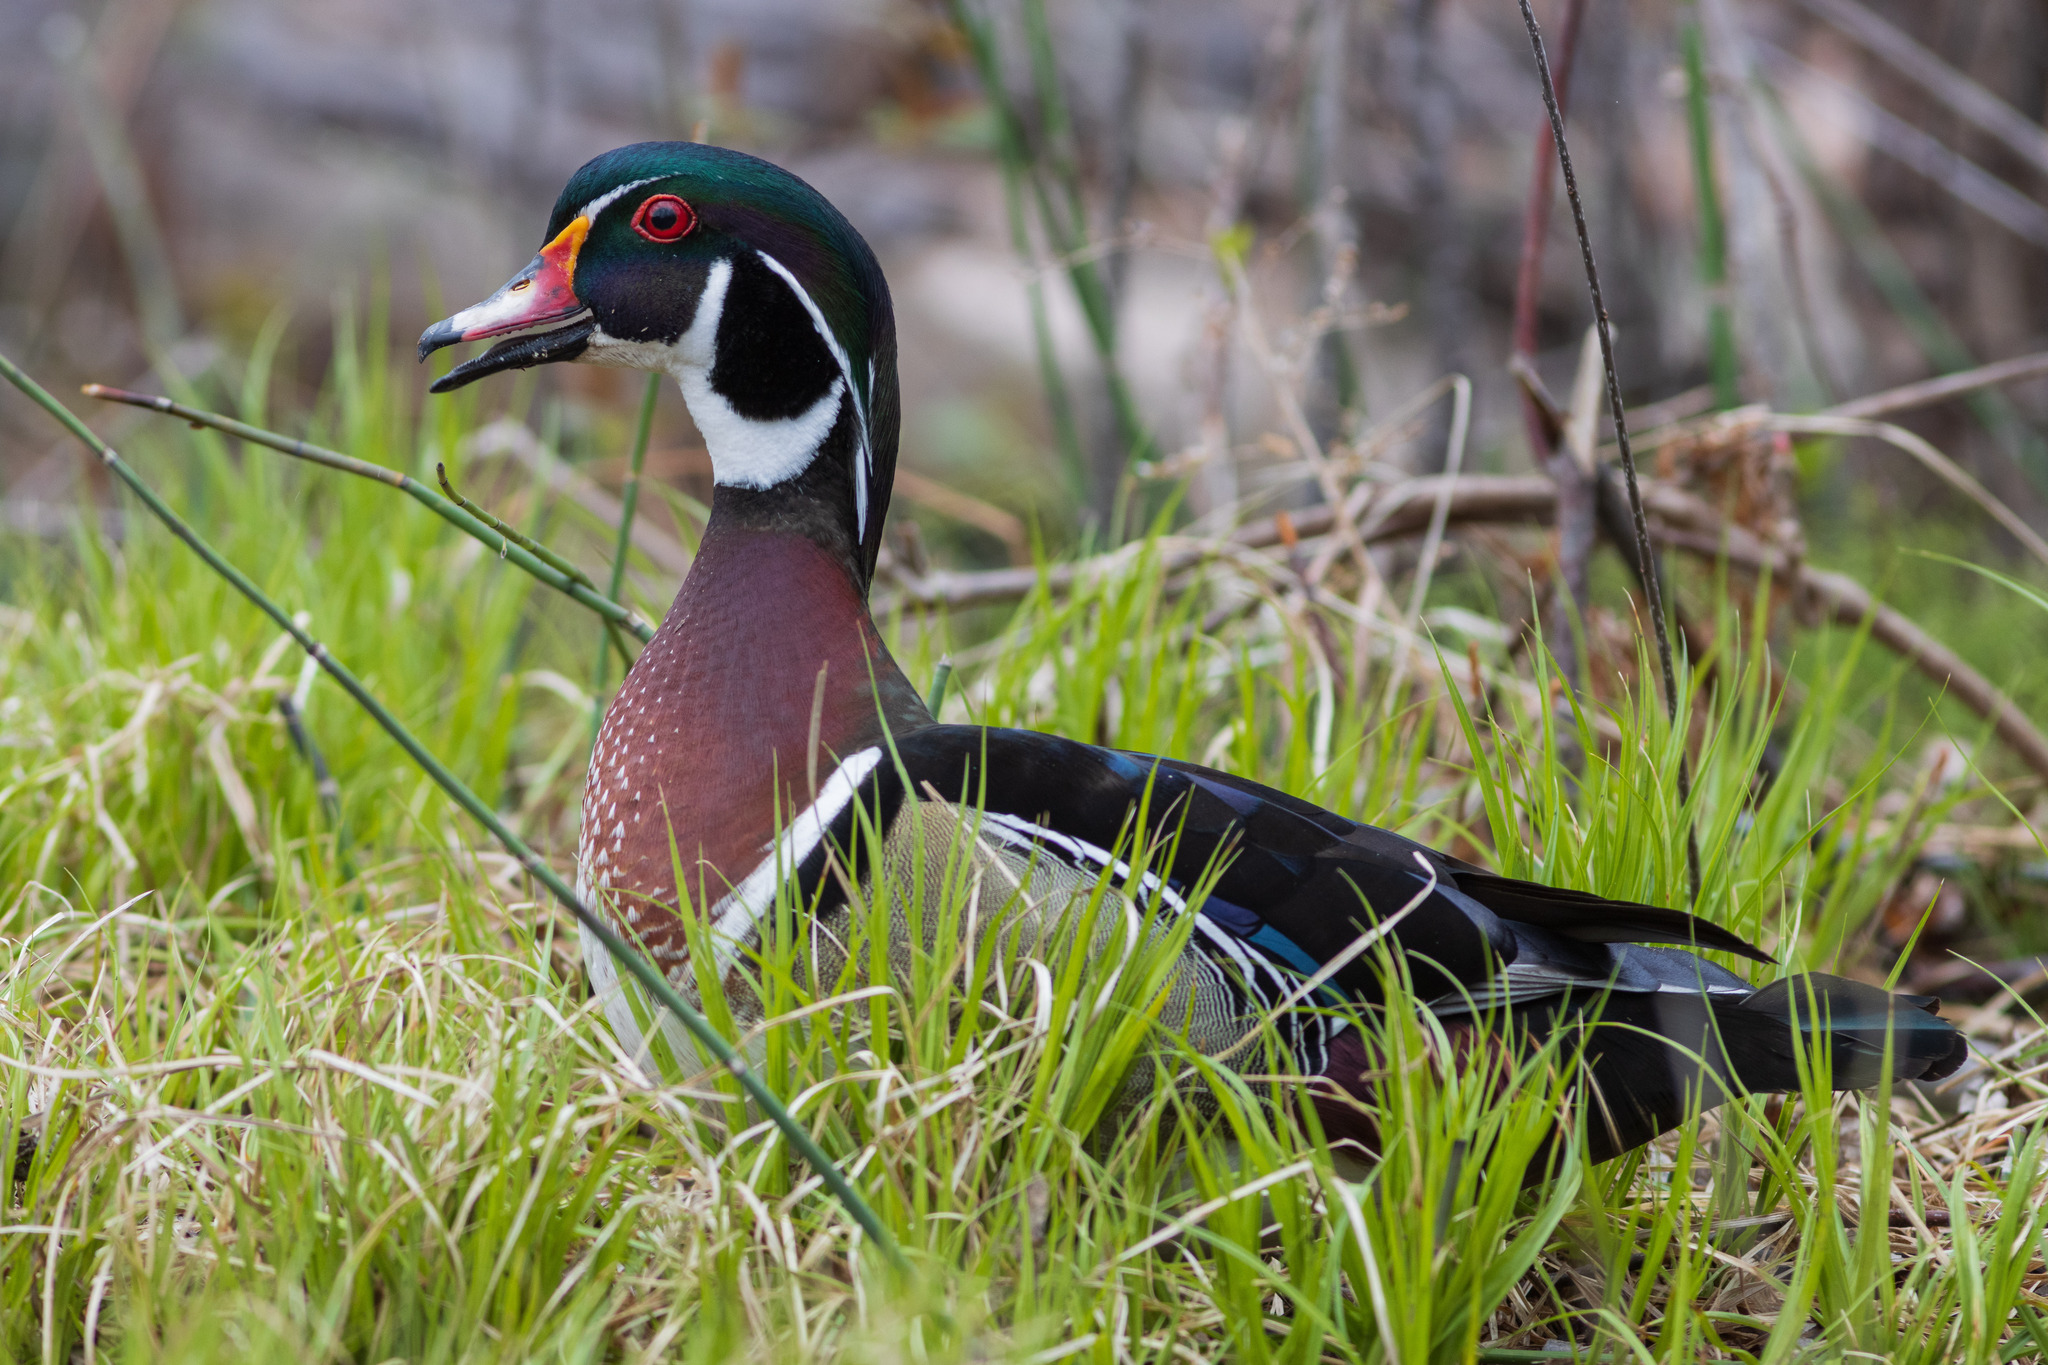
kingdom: Animalia
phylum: Chordata
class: Aves
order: Anseriformes
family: Anatidae
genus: Aix
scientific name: Aix sponsa
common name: Wood duck
